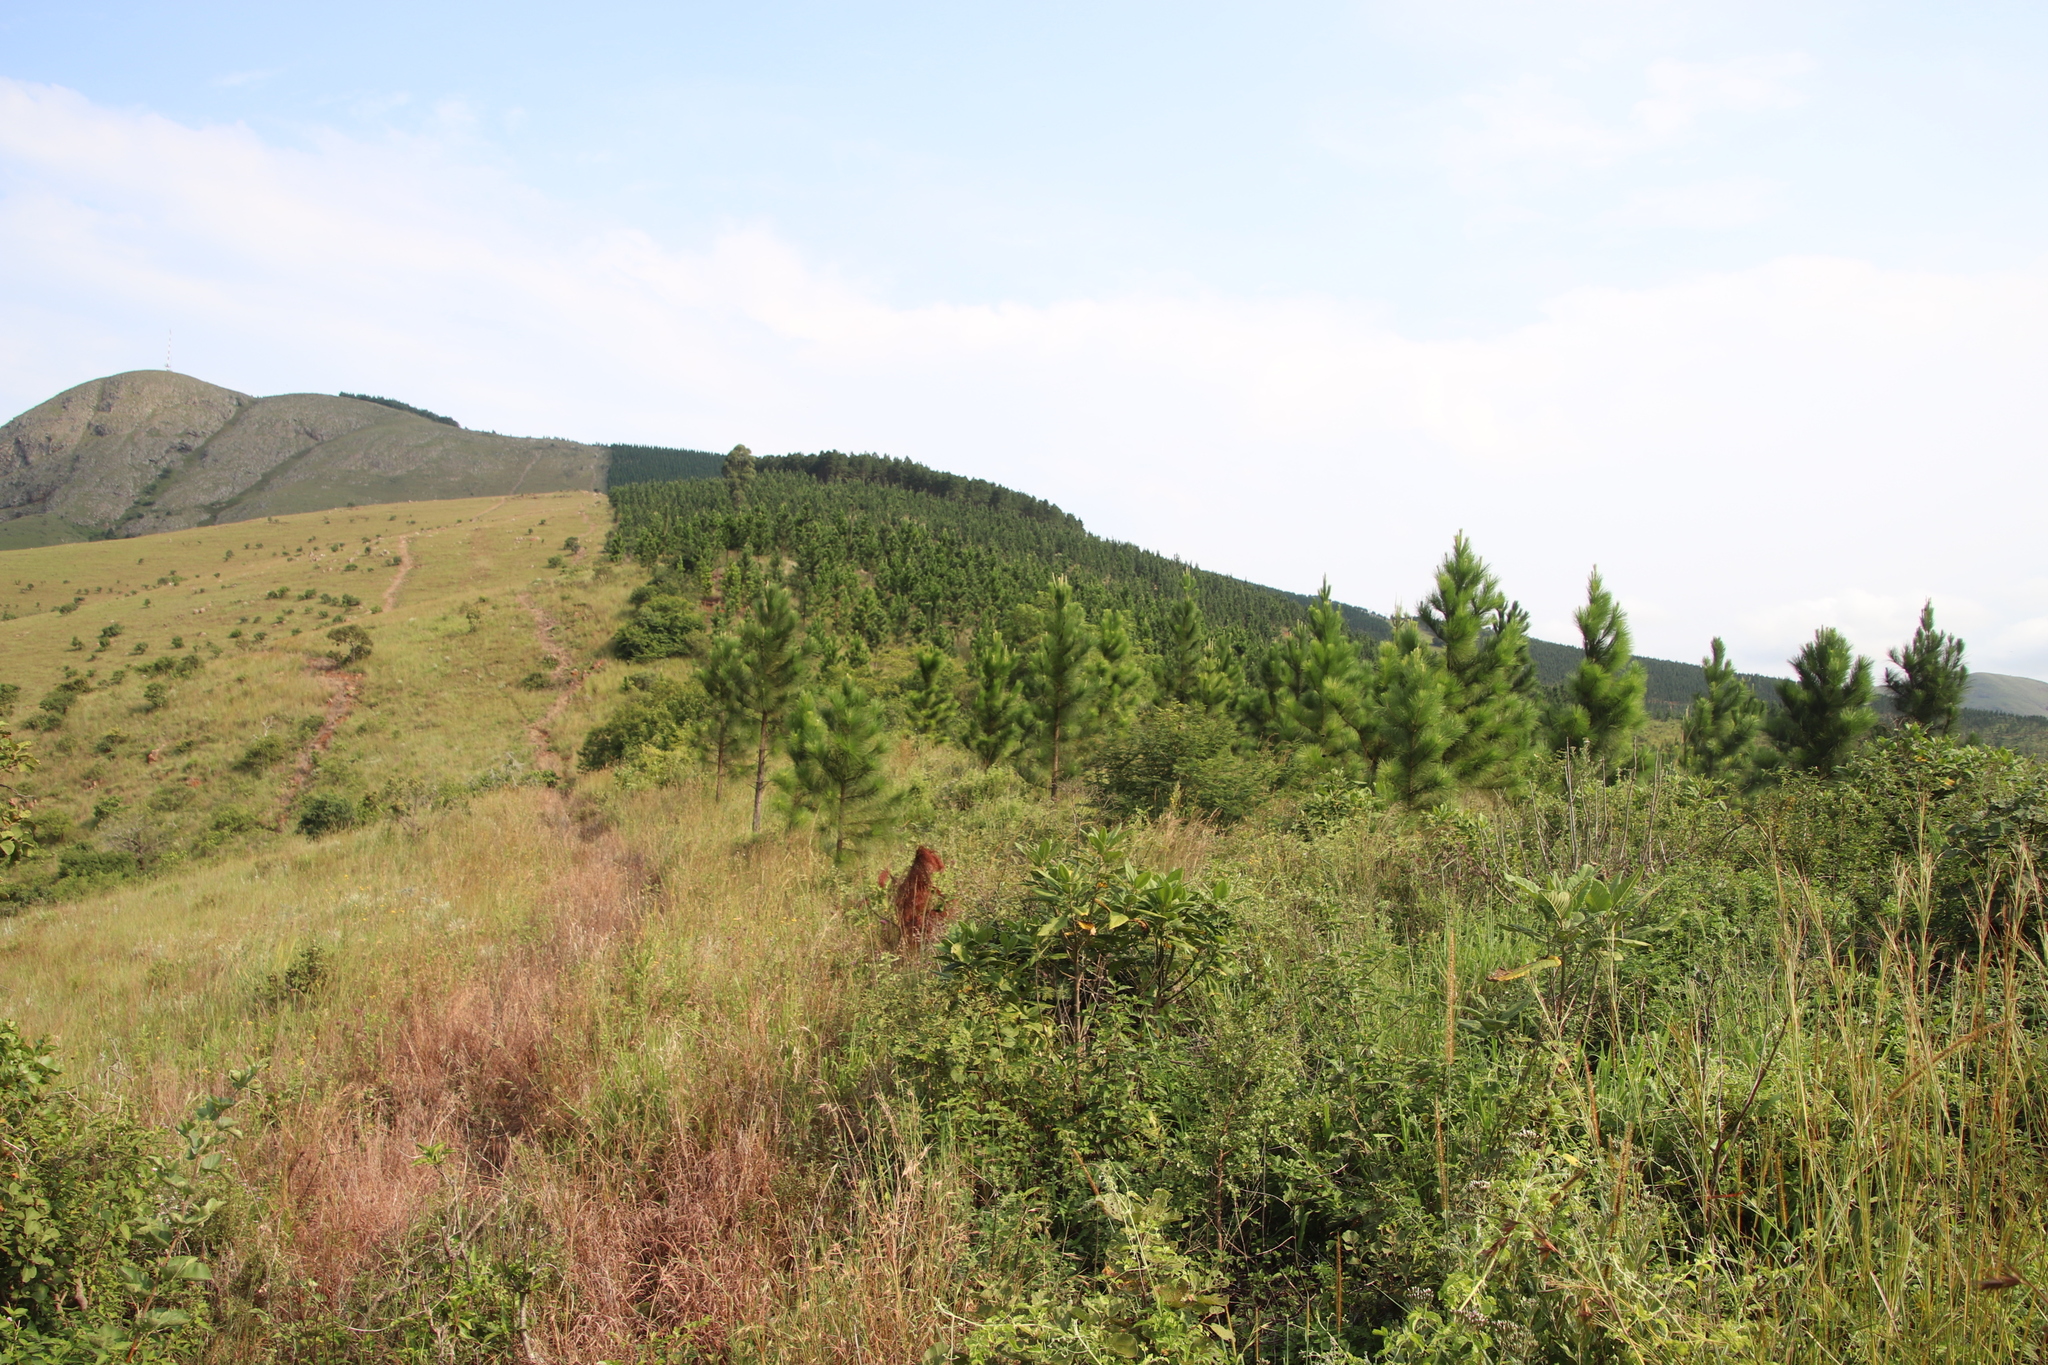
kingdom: Plantae
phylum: Tracheophyta
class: Magnoliopsida
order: Lamiales
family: Verbenaceae
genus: Verbena
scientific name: Verbena bonariensis
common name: Purpletop vervain
